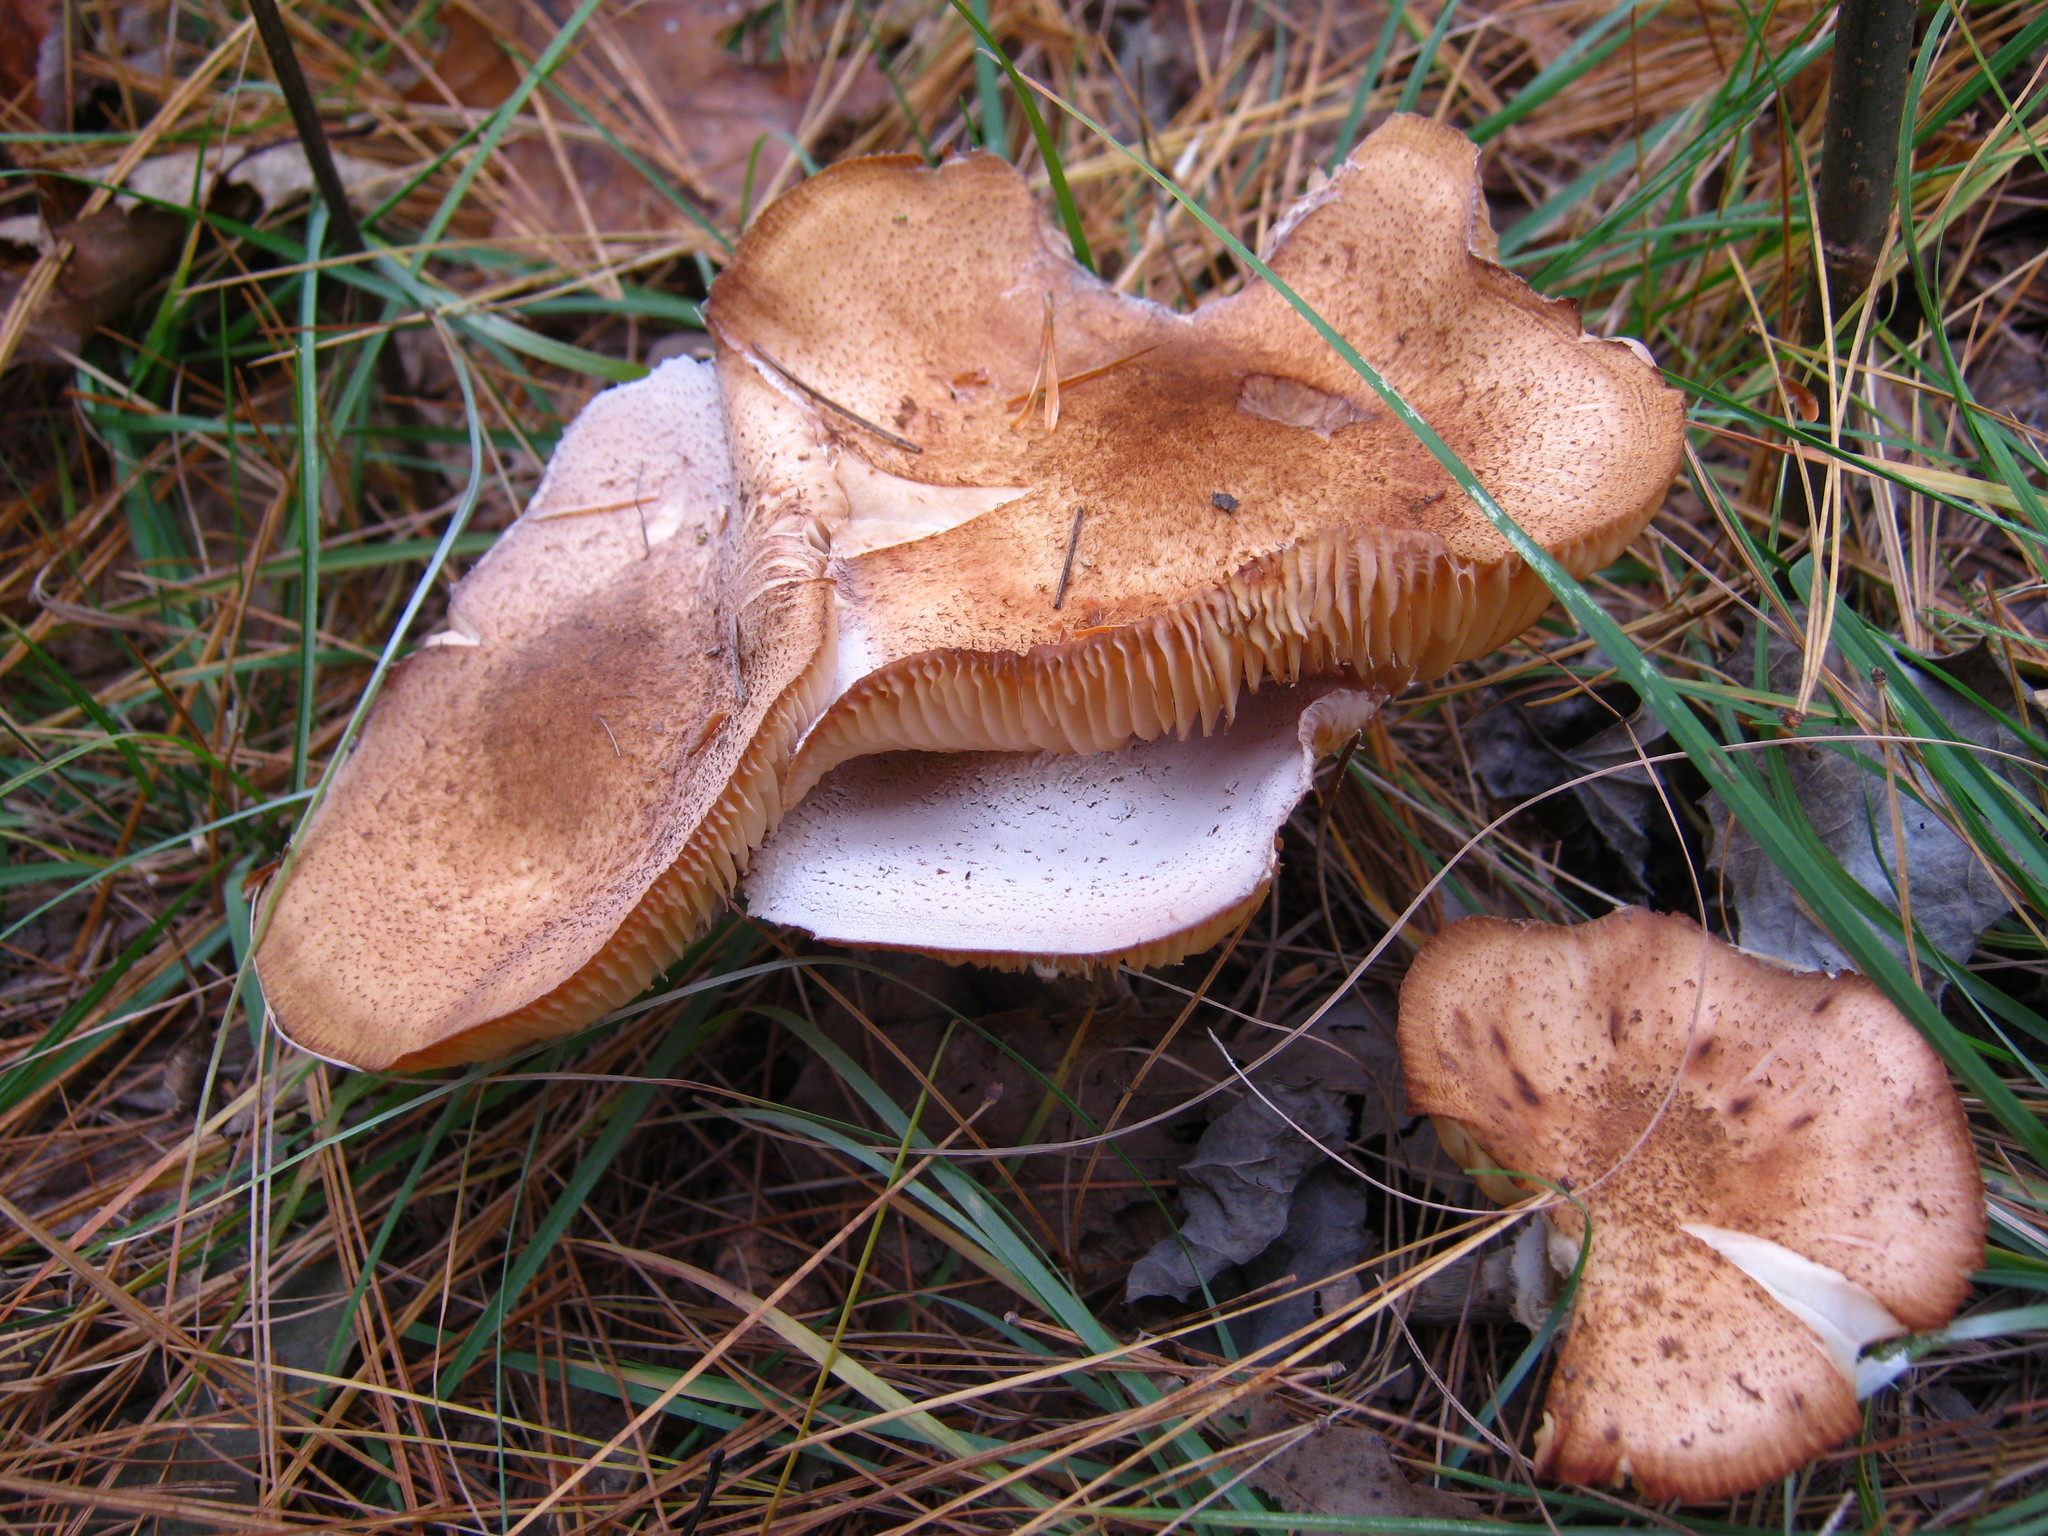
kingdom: Fungi
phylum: Basidiomycota
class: Agaricomycetes
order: Agaricales
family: Physalacriaceae
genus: Armillaria
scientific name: Armillaria ostoyae
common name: Dark honey fungus
